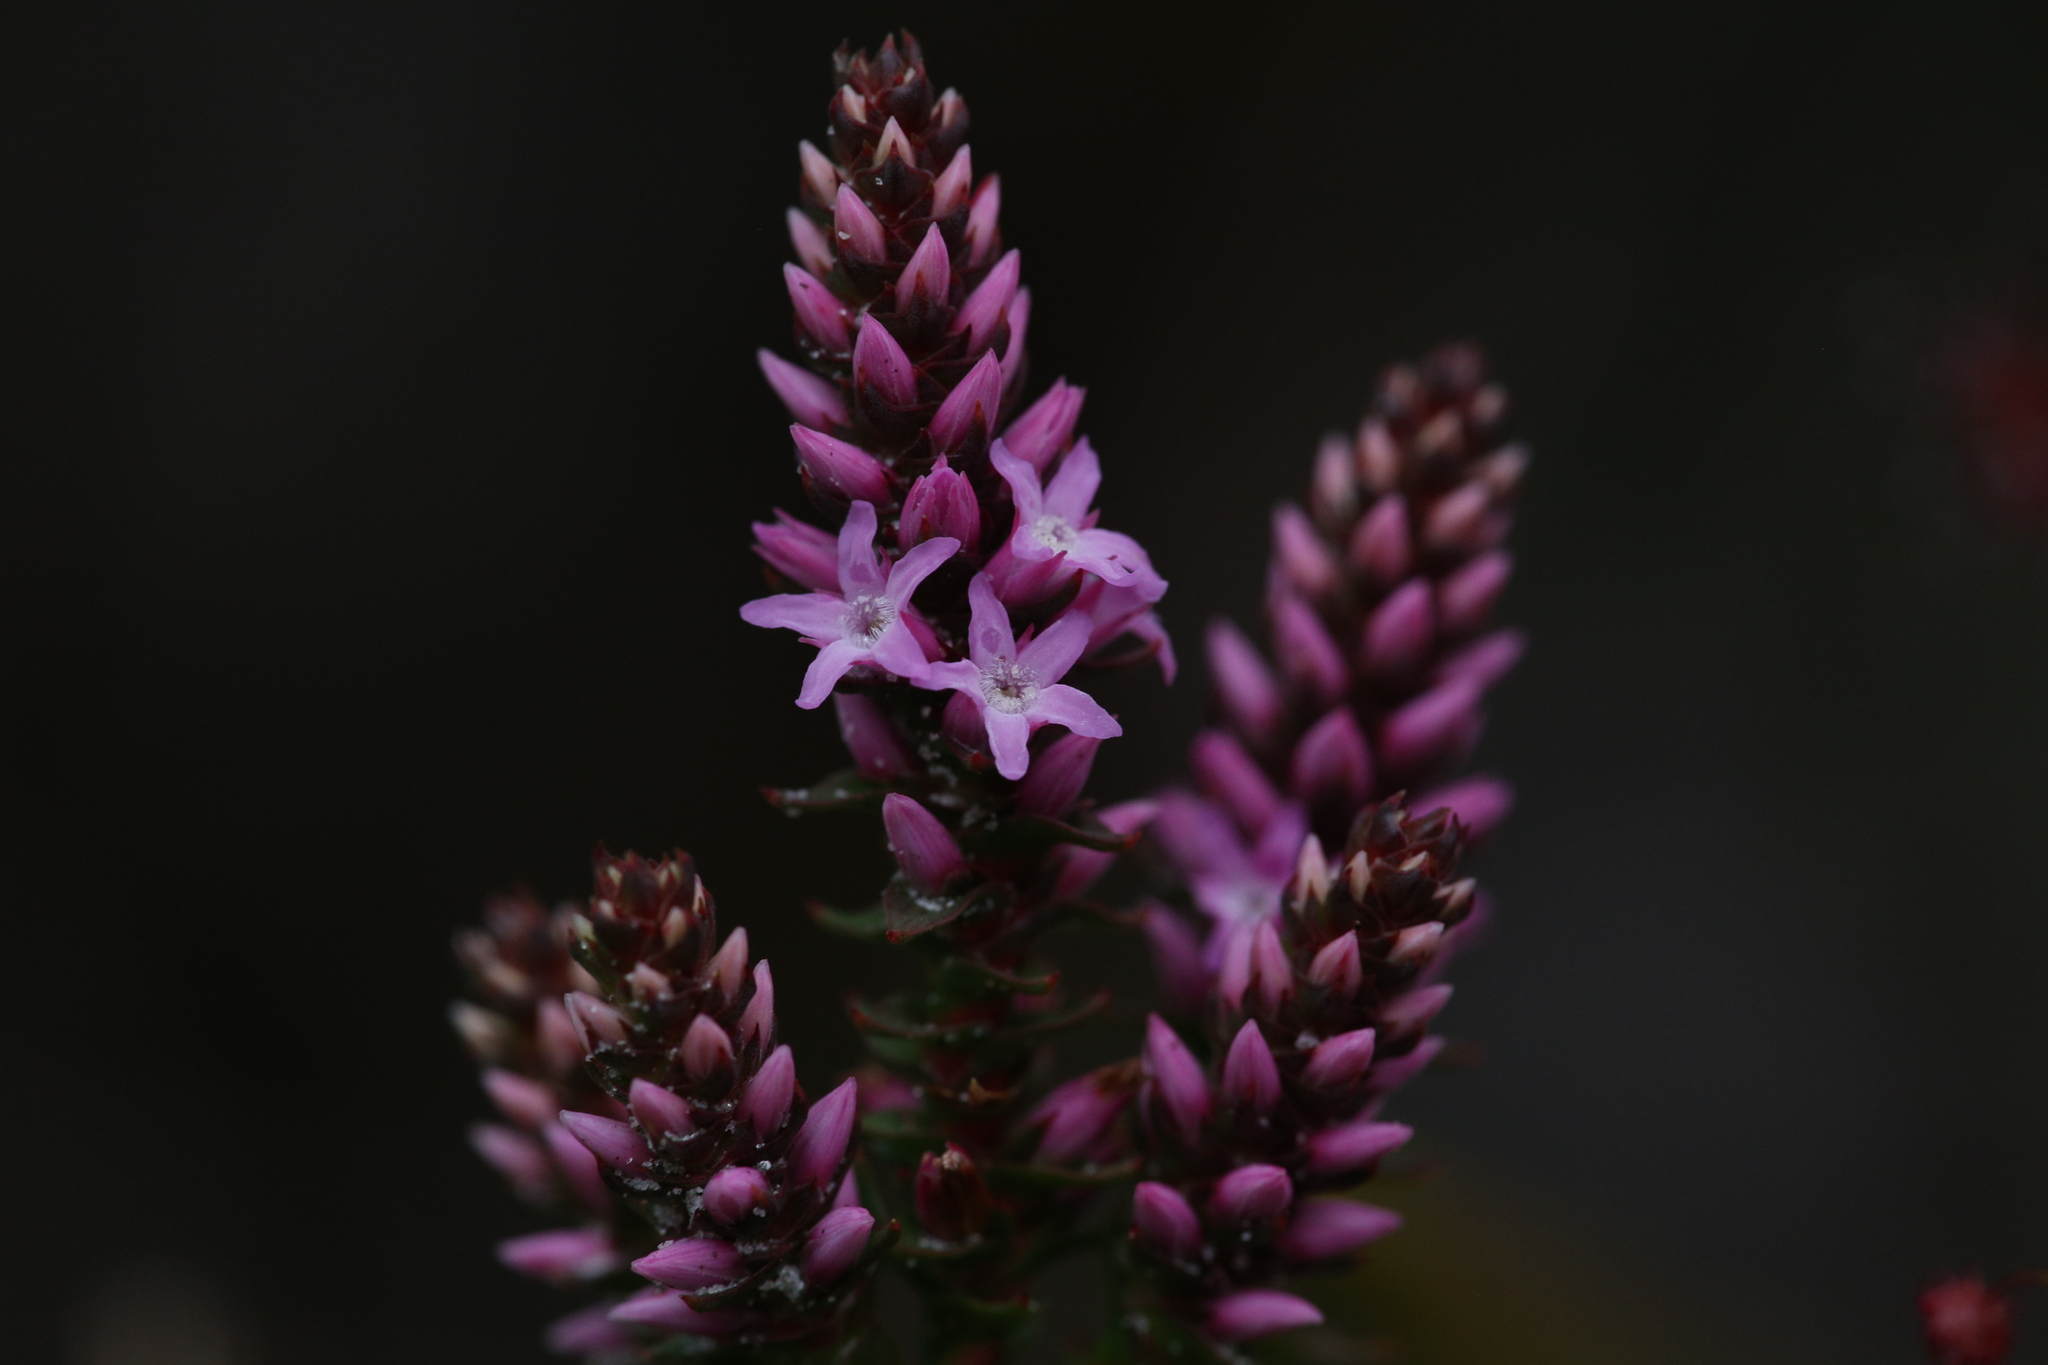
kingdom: Plantae
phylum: Tracheophyta
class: Magnoliopsida
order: Ericales
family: Ericaceae
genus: Andersonia
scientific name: Andersonia simplex
